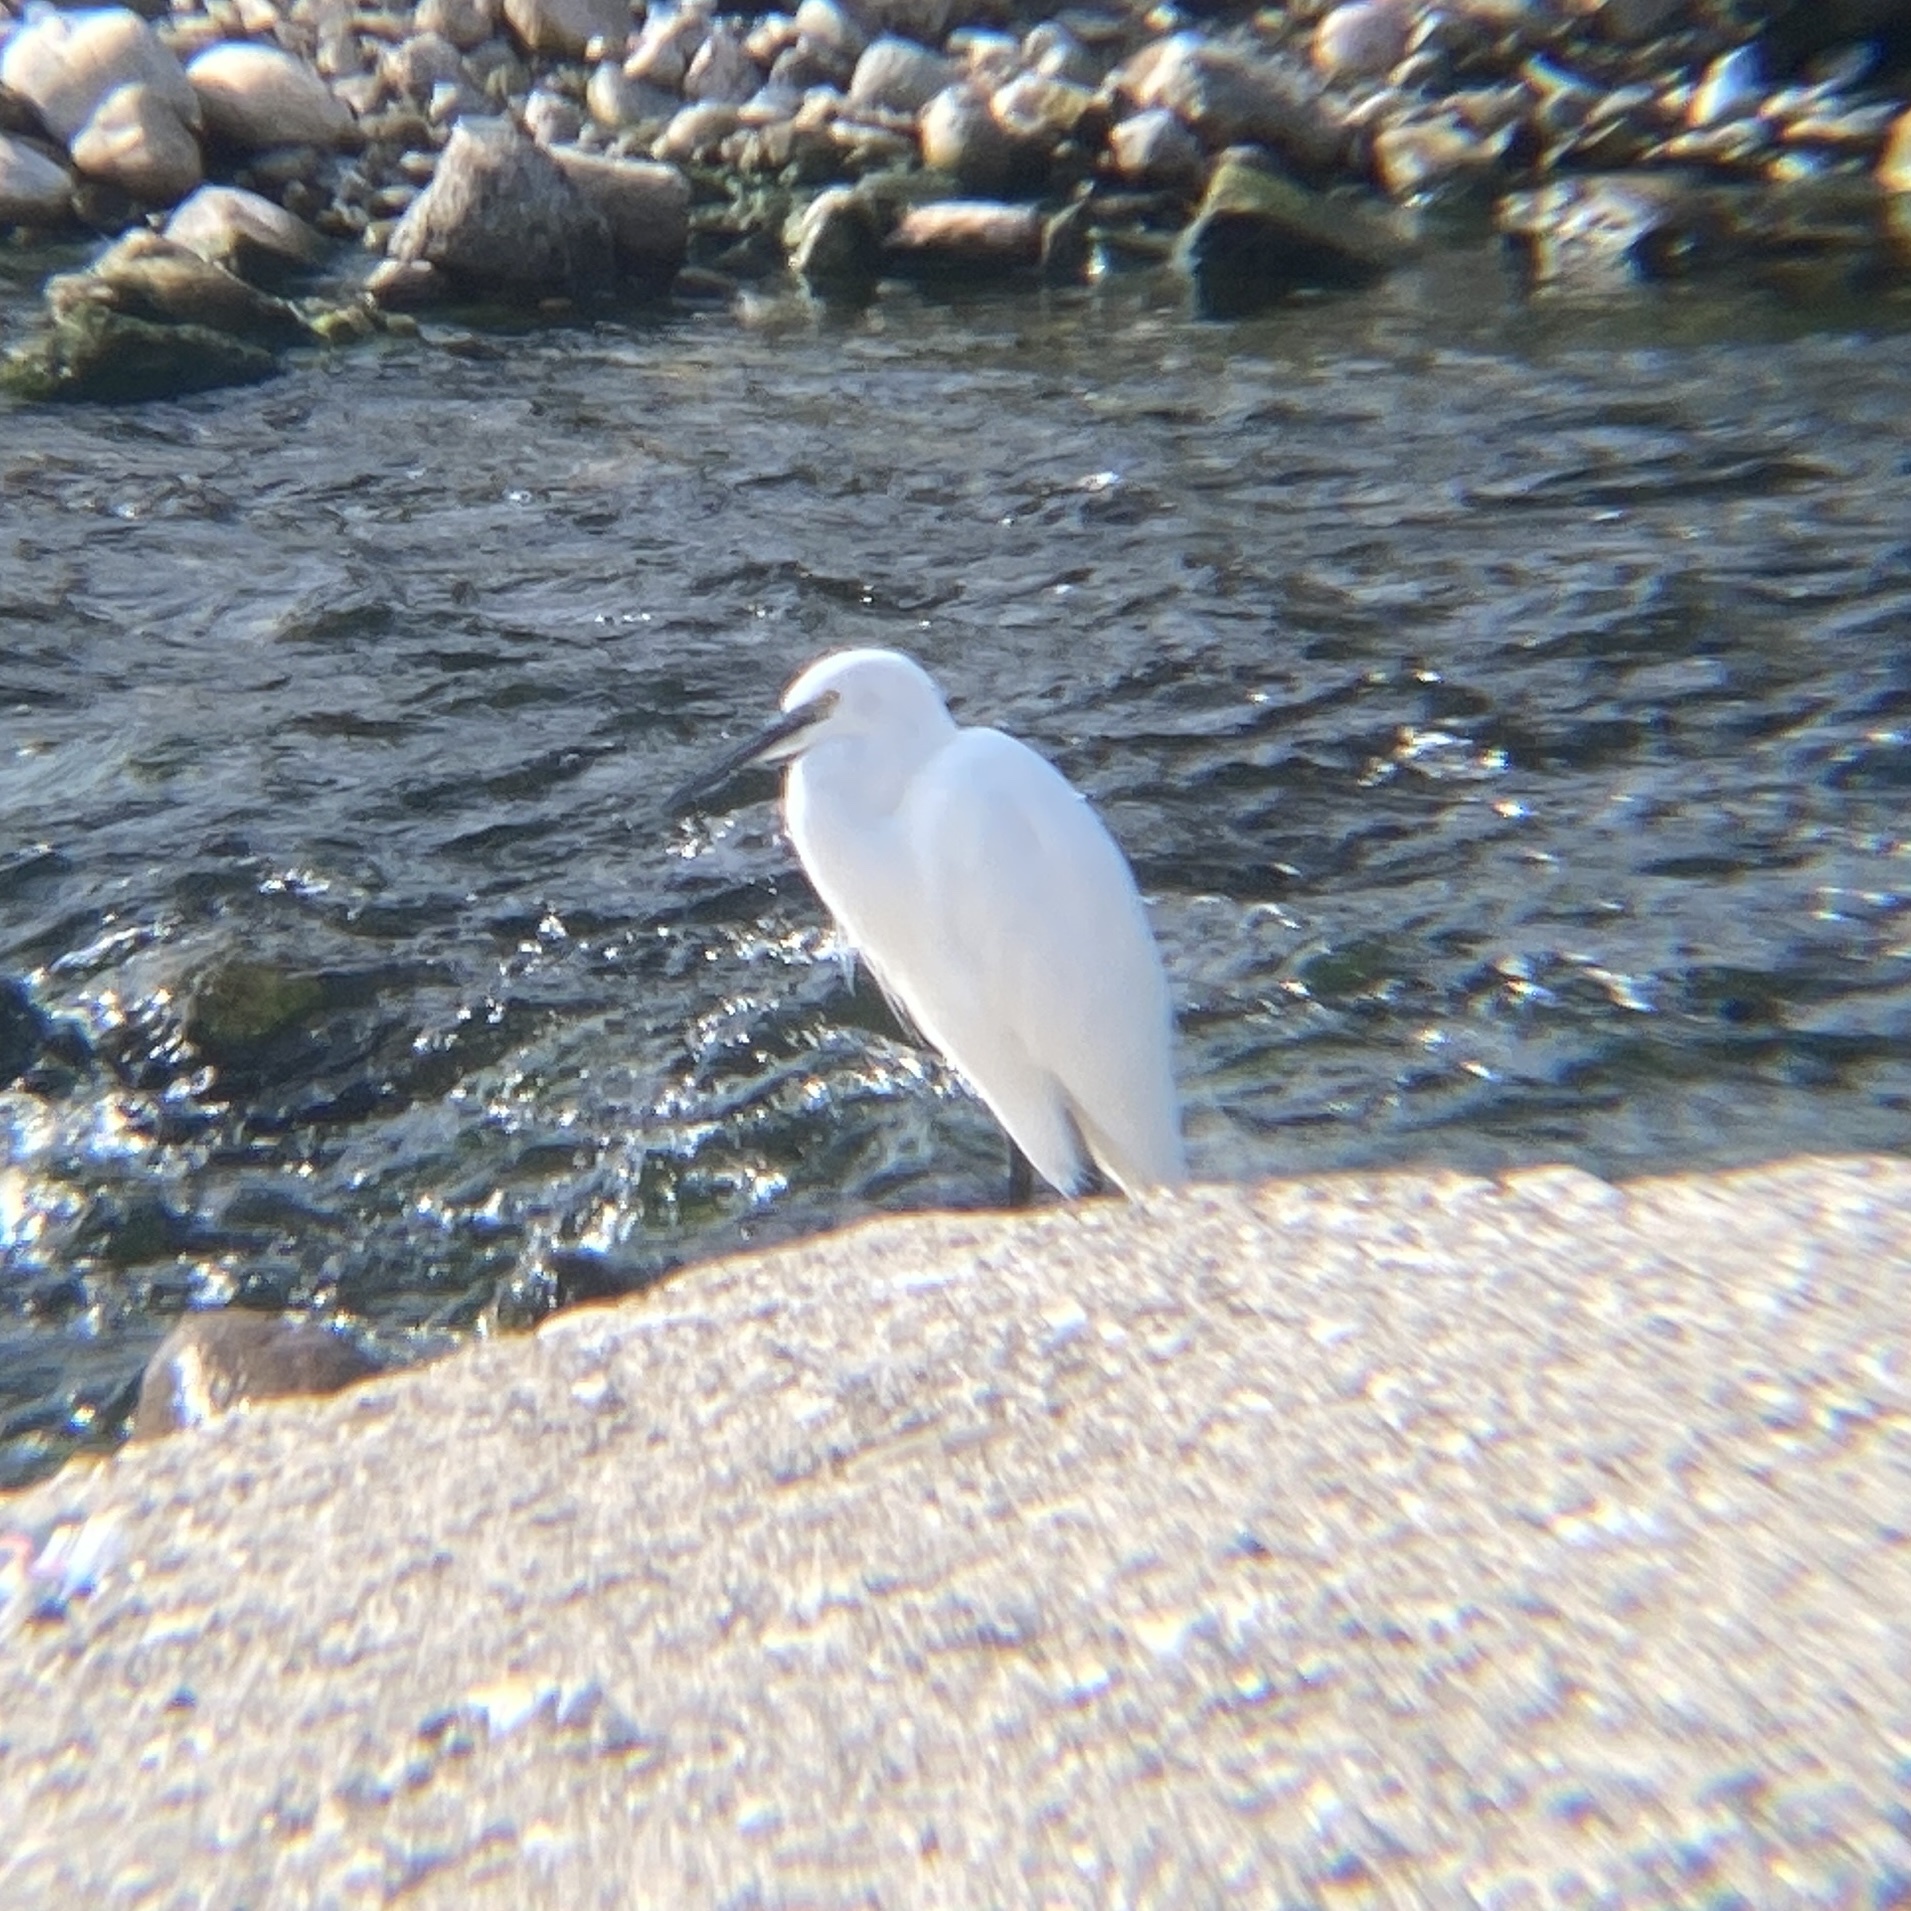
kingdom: Animalia
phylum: Chordata
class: Aves
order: Pelecaniformes
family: Ardeidae
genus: Egretta
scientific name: Egretta garzetta
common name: Little egret
